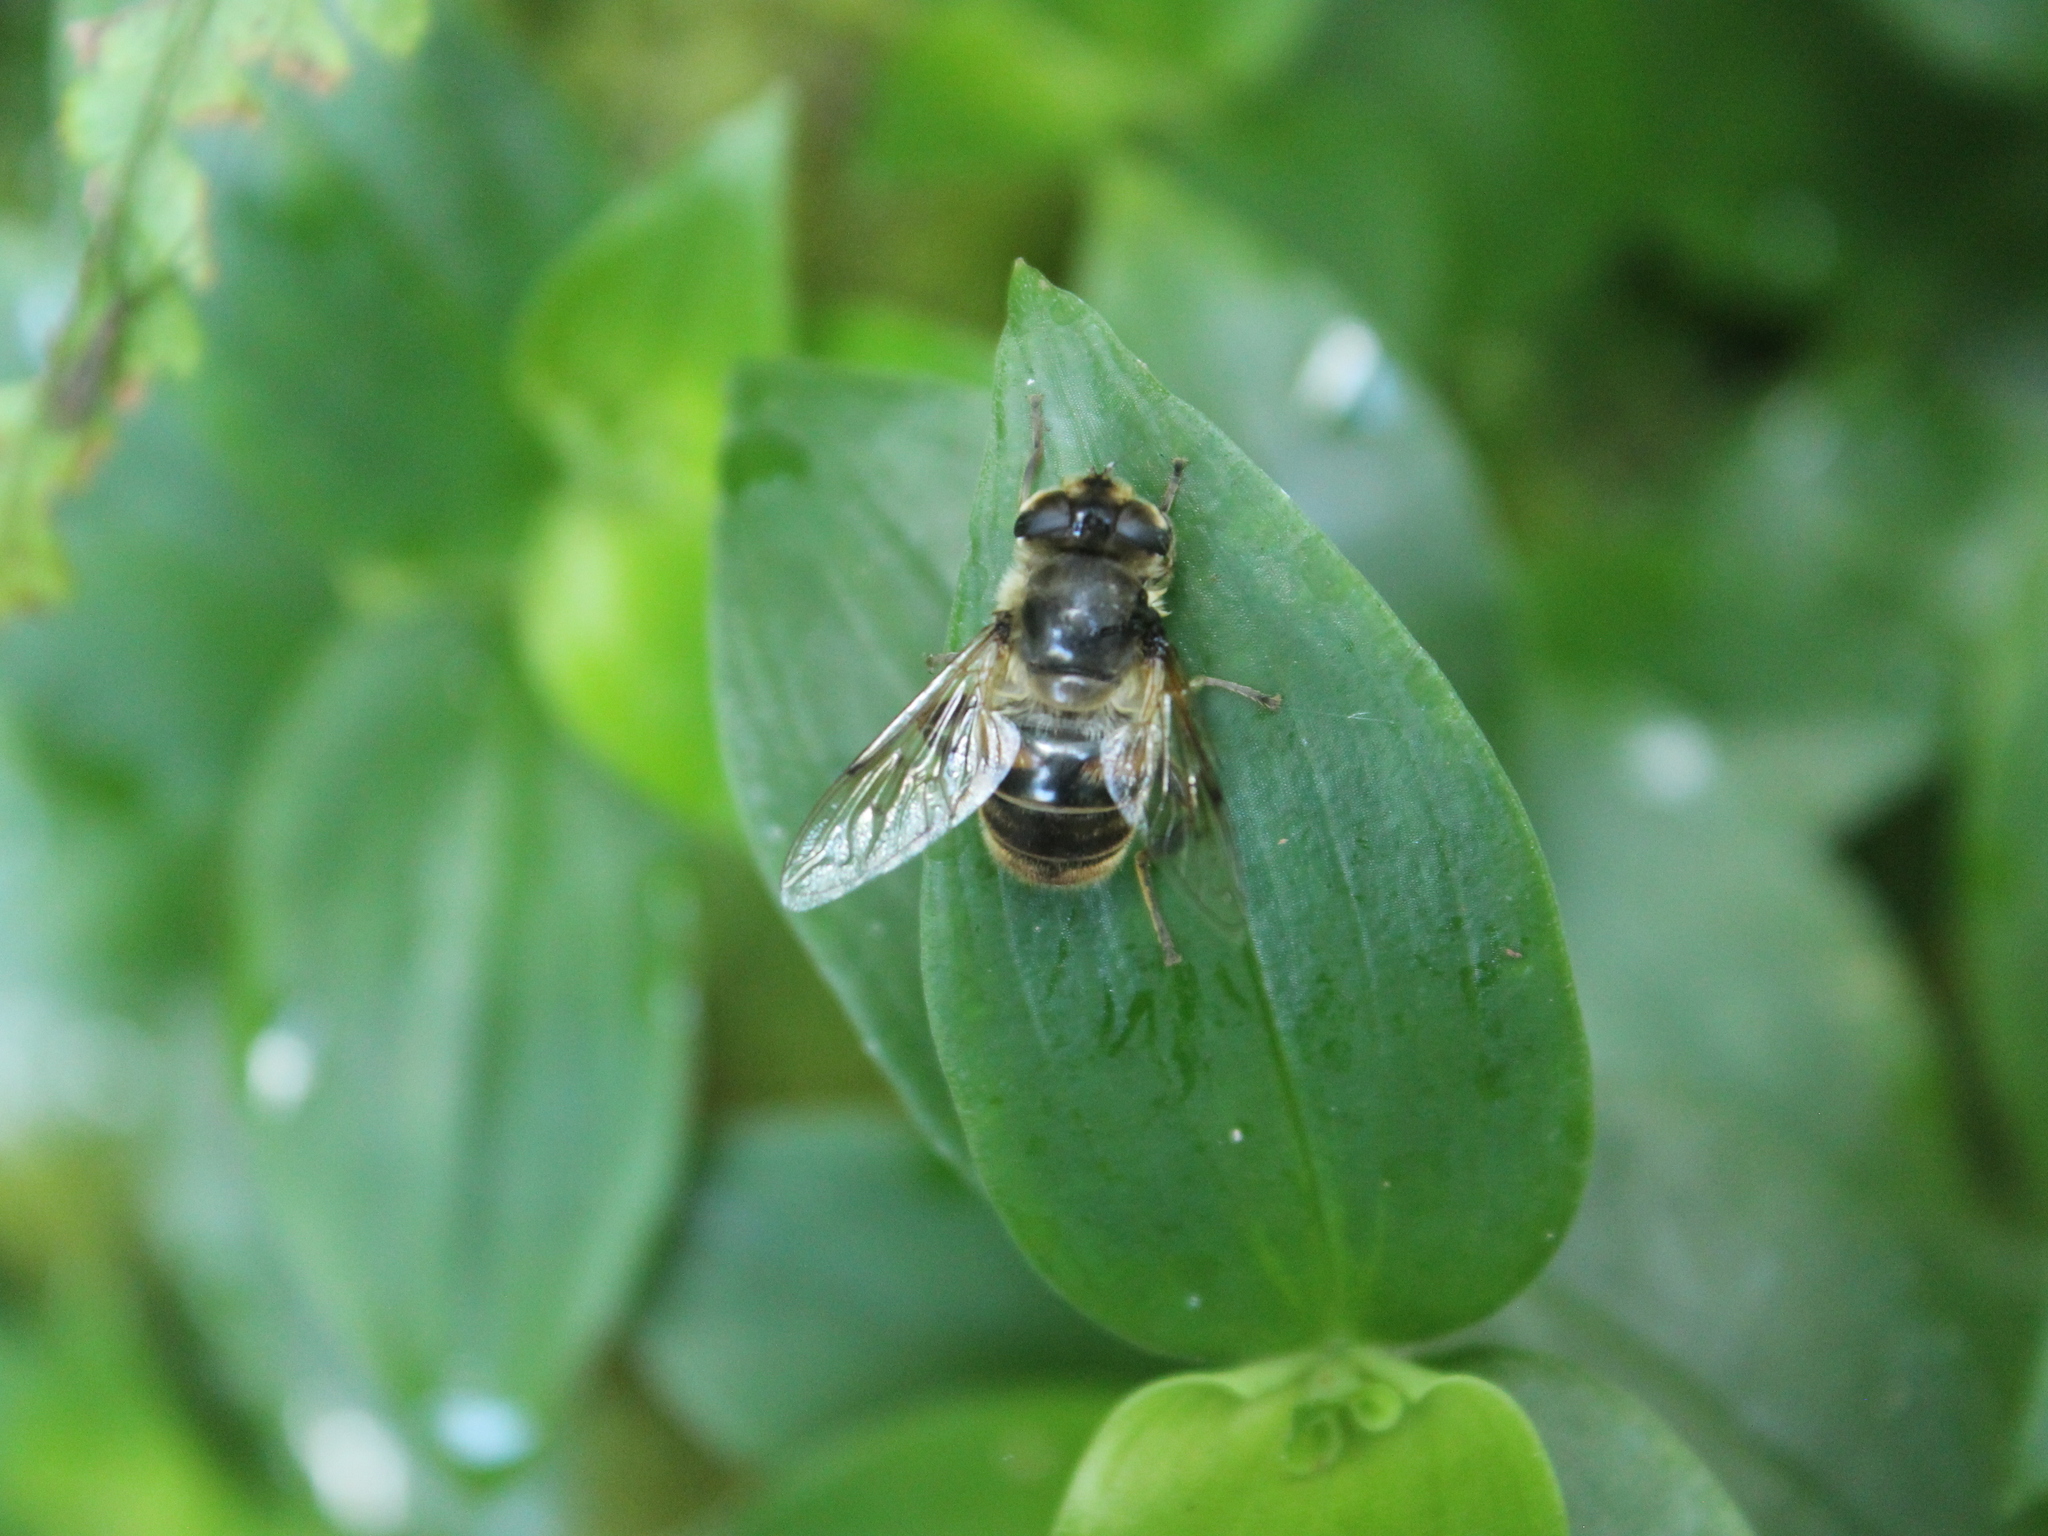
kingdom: Animalia
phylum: Arthropoda
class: Insecta
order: Diptera
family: Syrphidae
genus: Eristalis
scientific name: Eristalis tenax
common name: Drone fly
